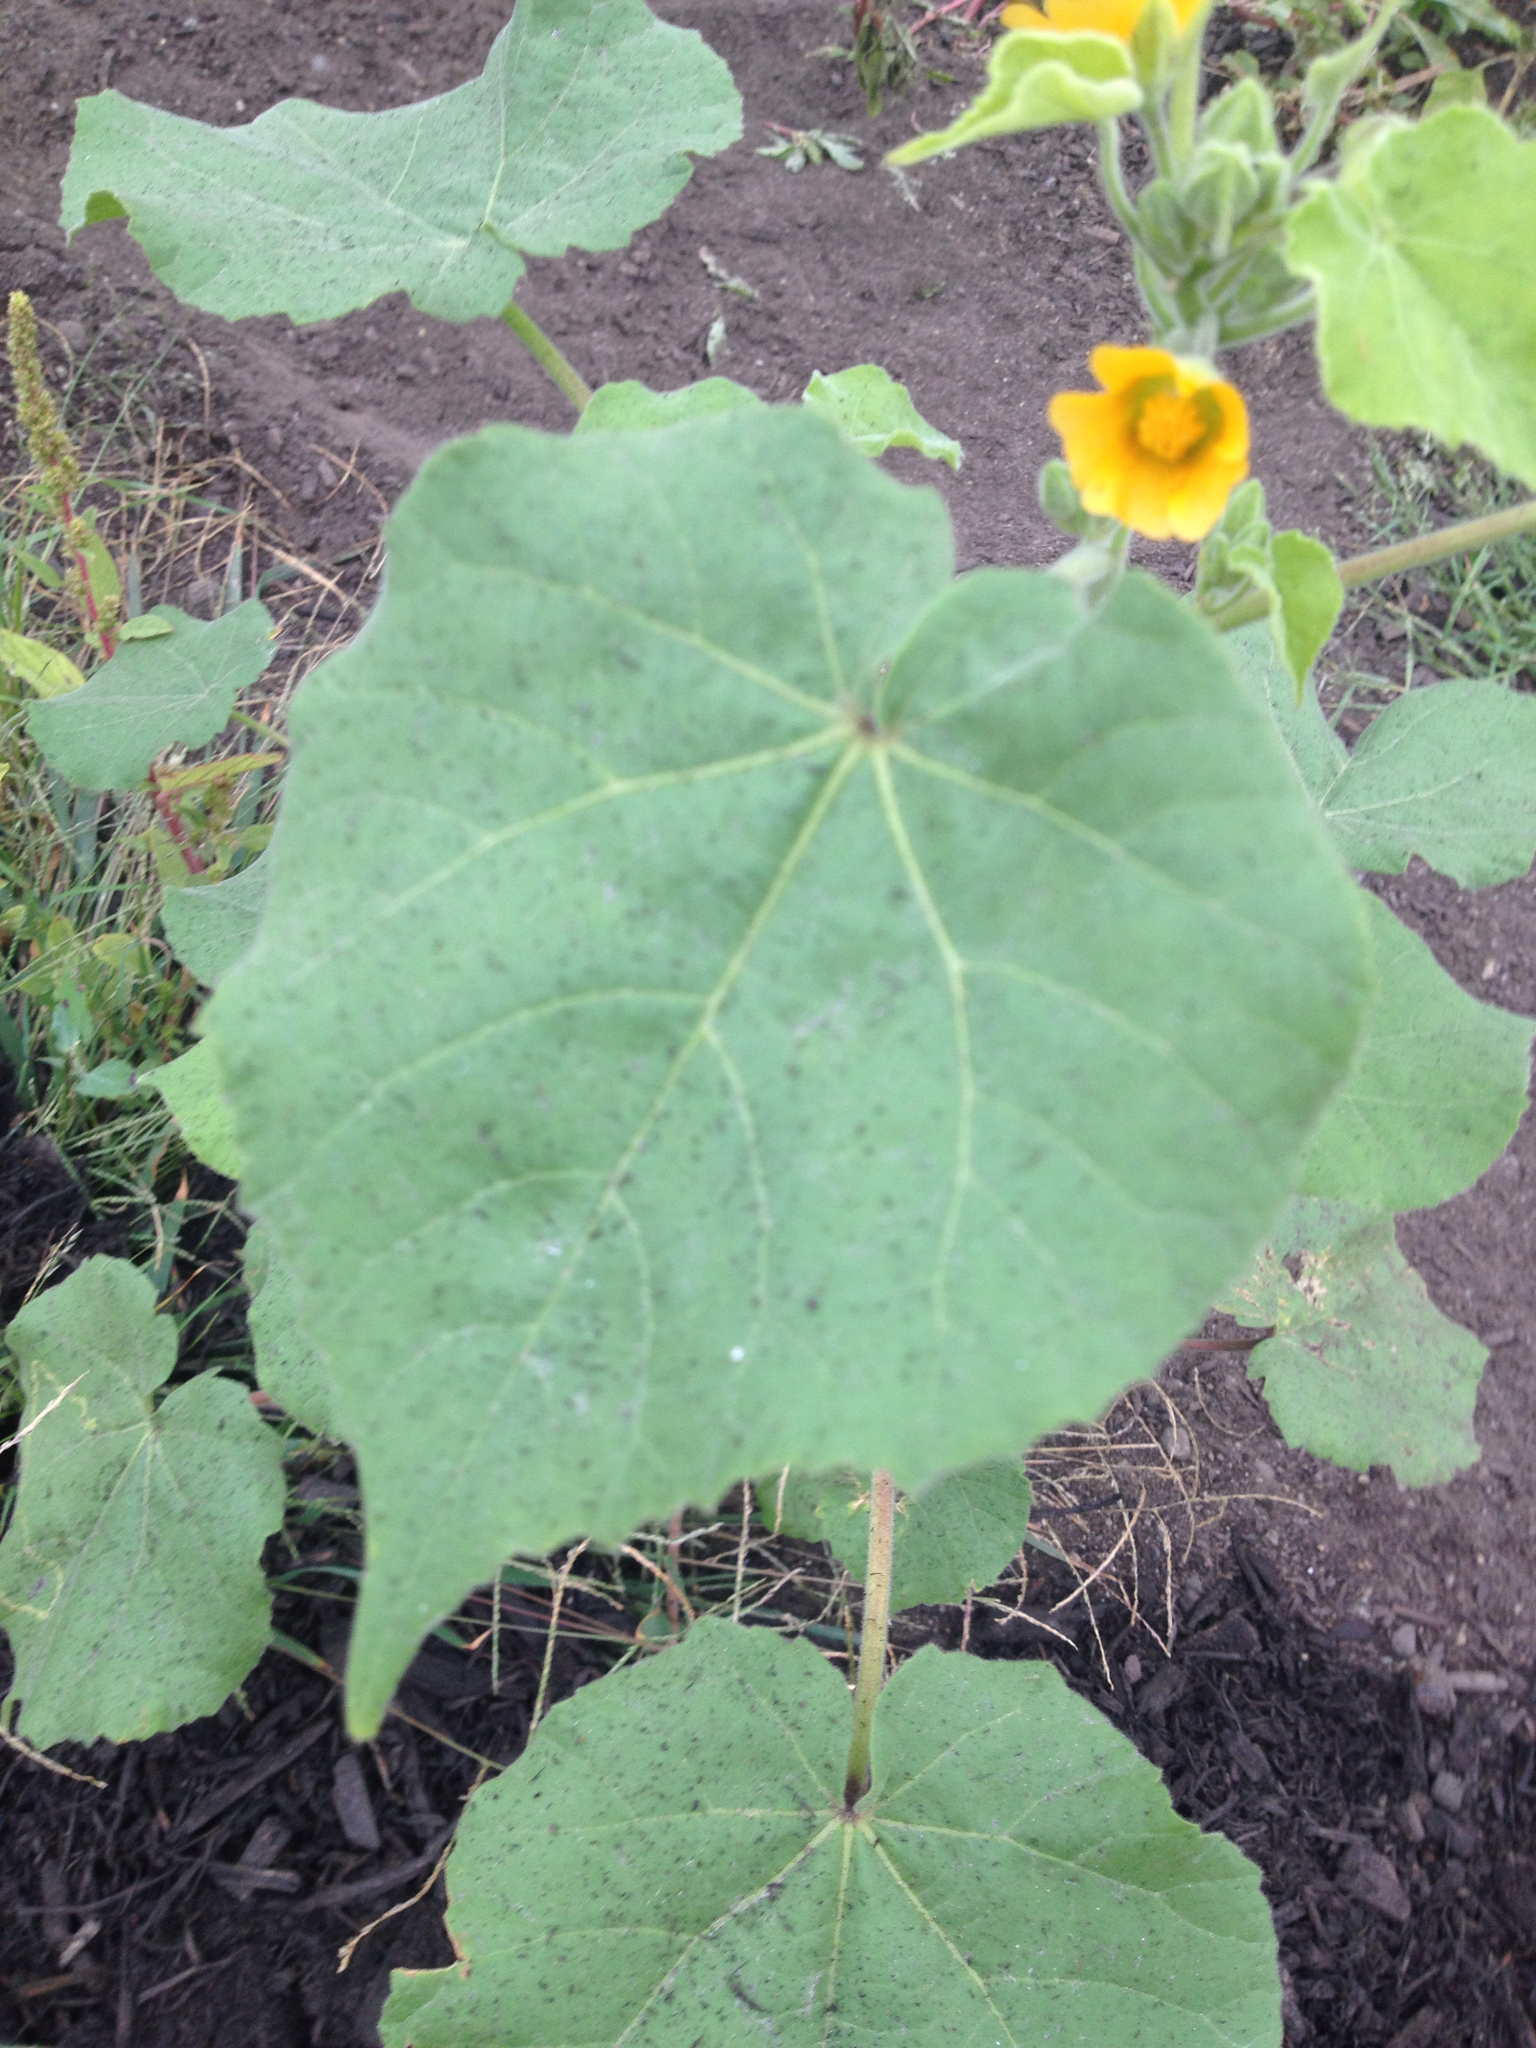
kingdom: Plantae
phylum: Tracheophyta
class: Magnoliopsida
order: Malvales
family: Malvaceae
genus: Abutilon
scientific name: Abutilon theophrasti
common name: Velvetleaf
